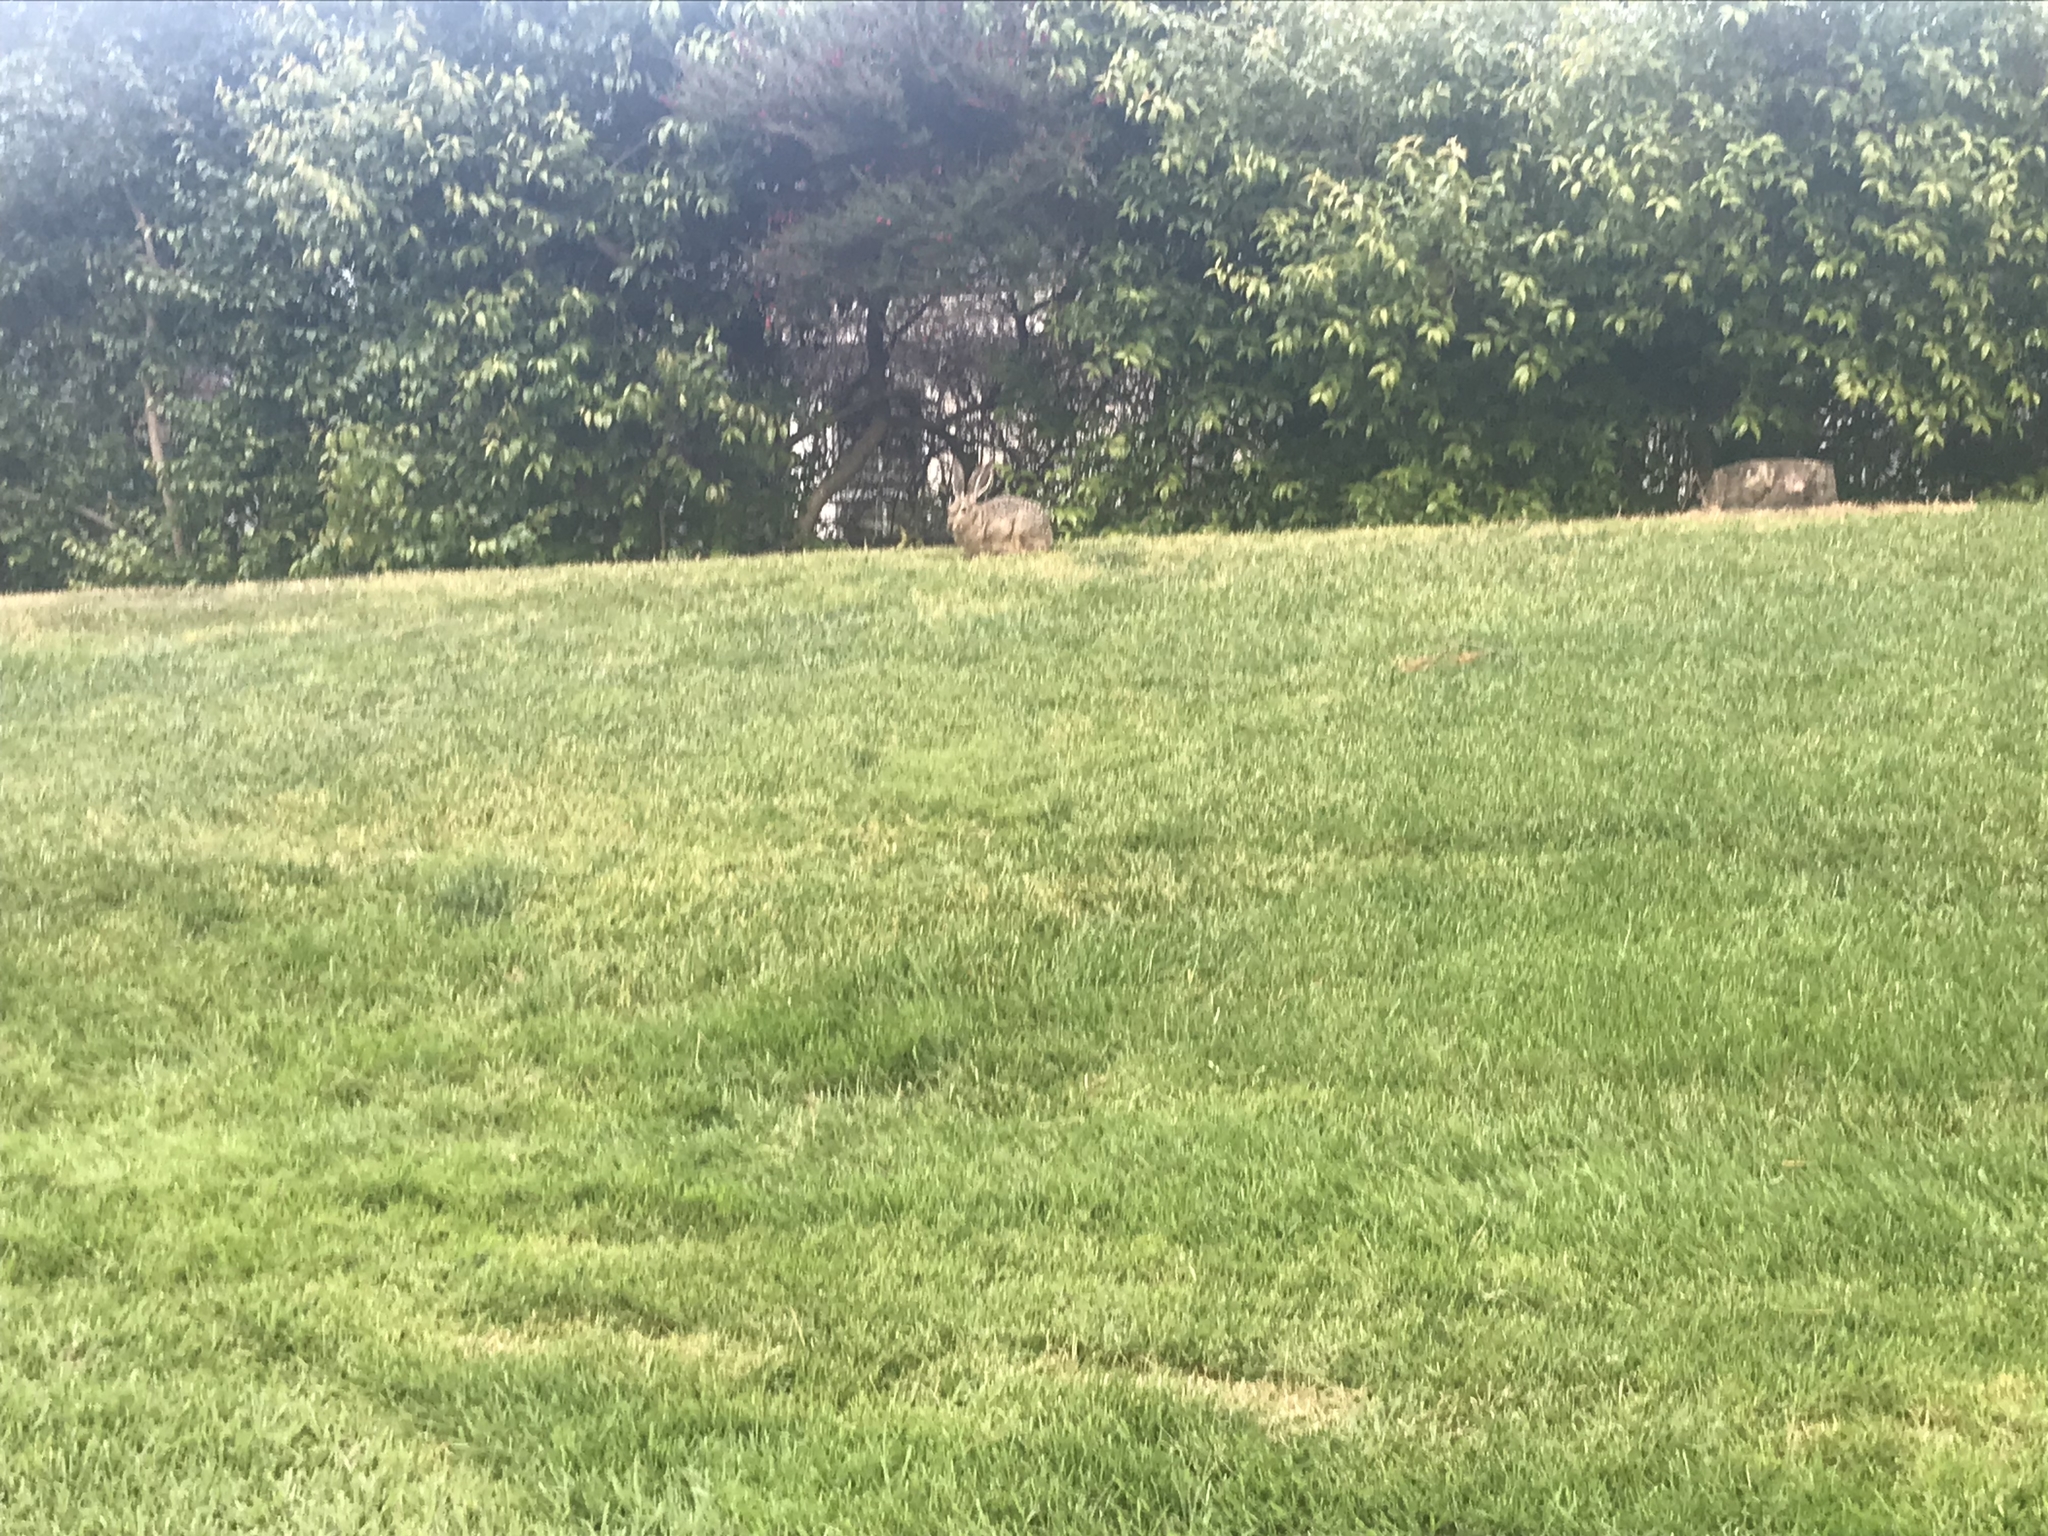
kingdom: Animalia
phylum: Chordata
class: Mammalia
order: Lagomorpha
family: Leporidae
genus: Lepus
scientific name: Lepus californicus
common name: Black-tailed jackrabbit
